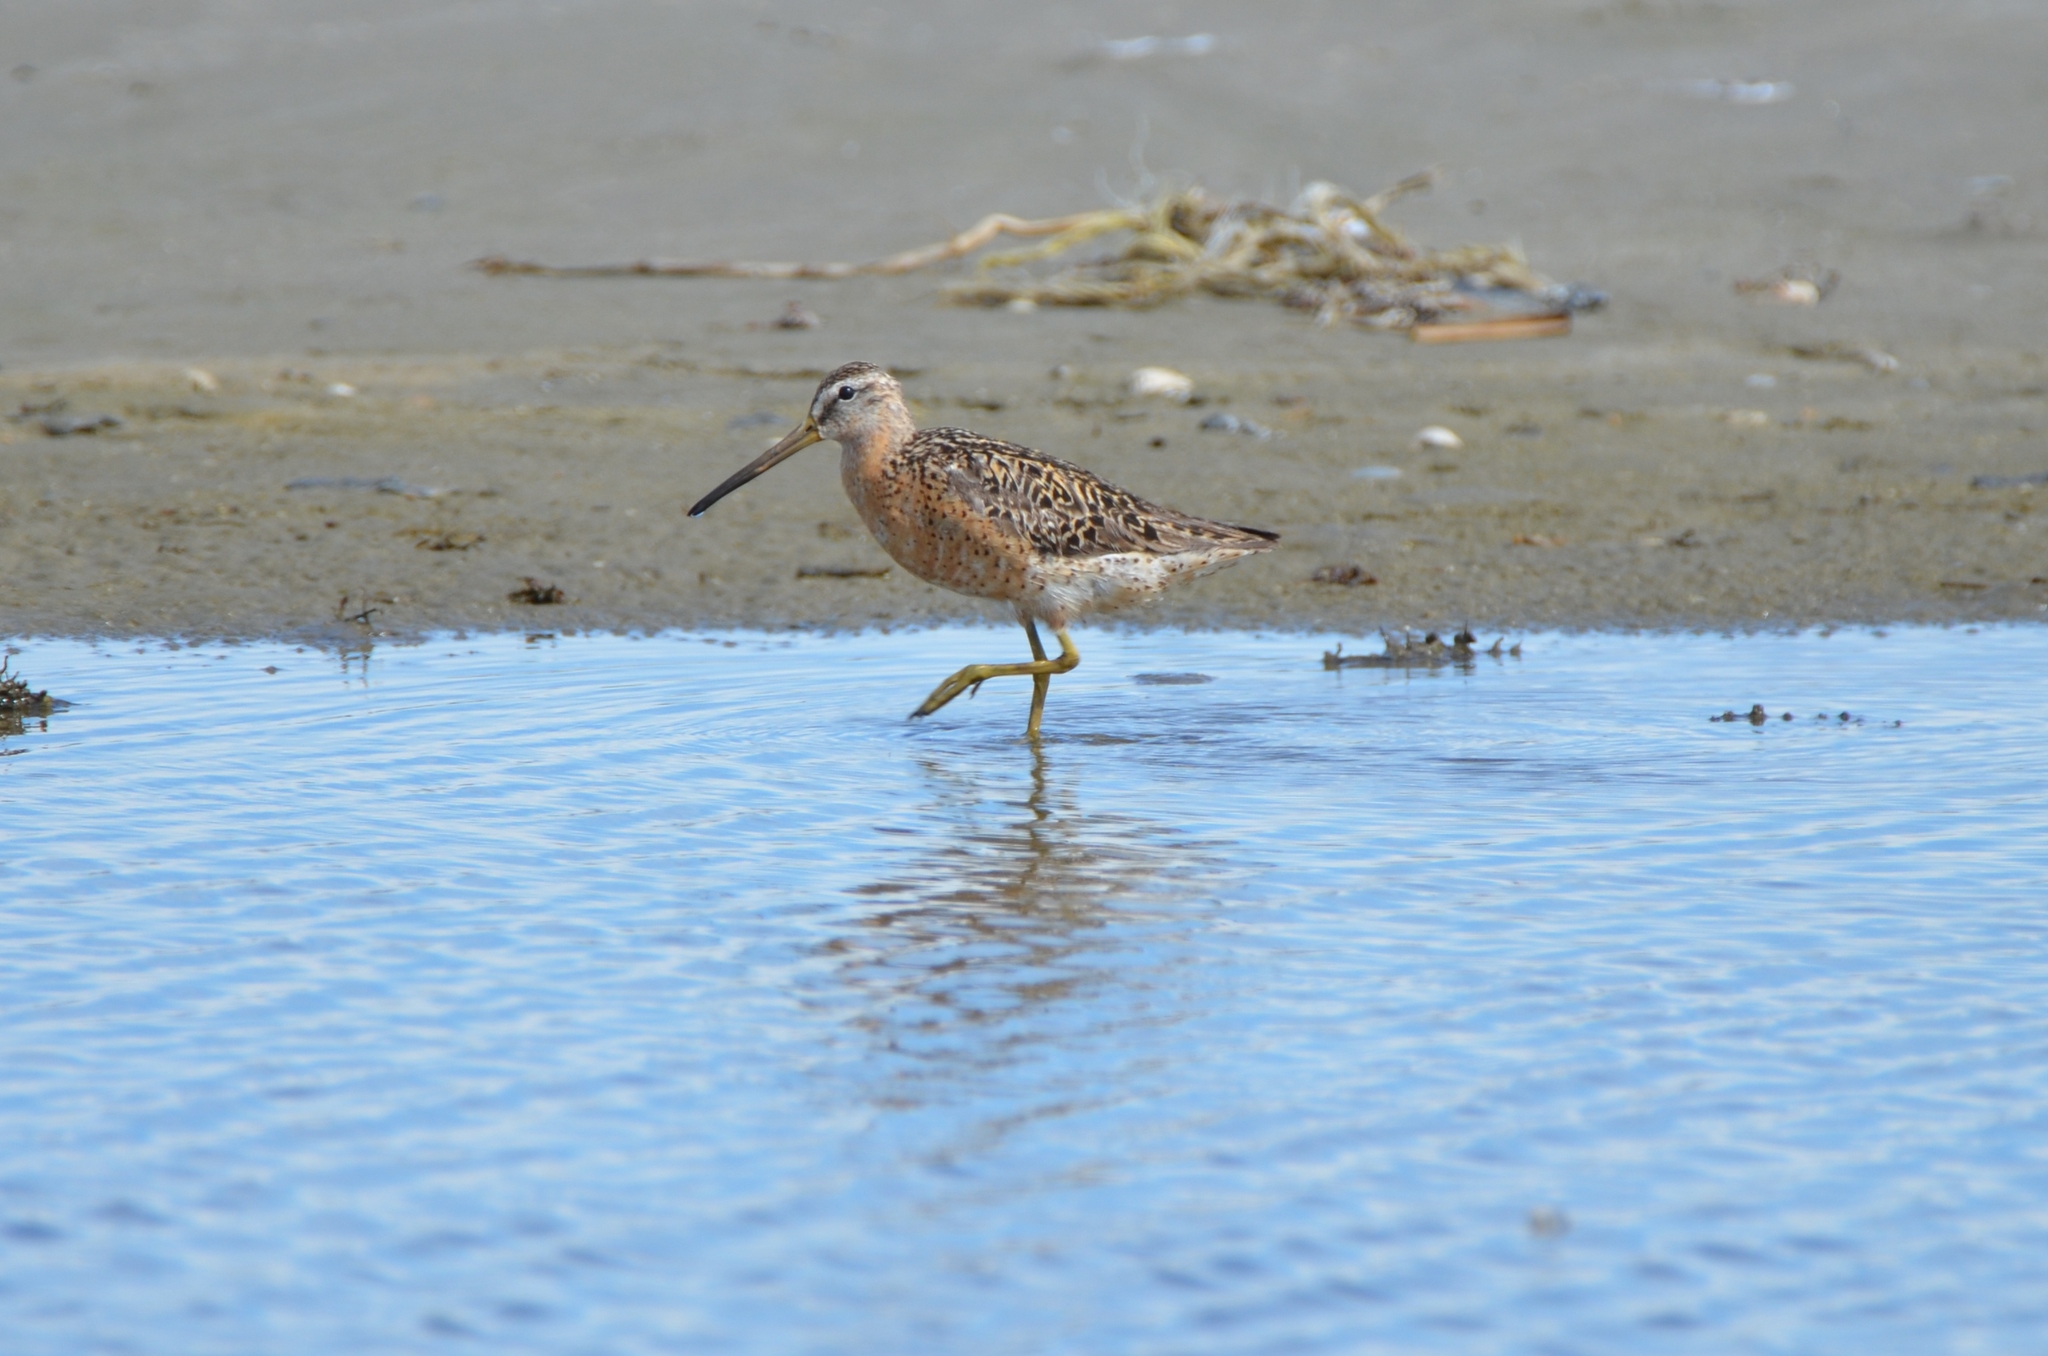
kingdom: Animalia
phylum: Chordata
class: Aves
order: Charadriiformes
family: Scolopacidae
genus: Limnodromus
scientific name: Limnodromus griseus
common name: Short-billed dowitcher
